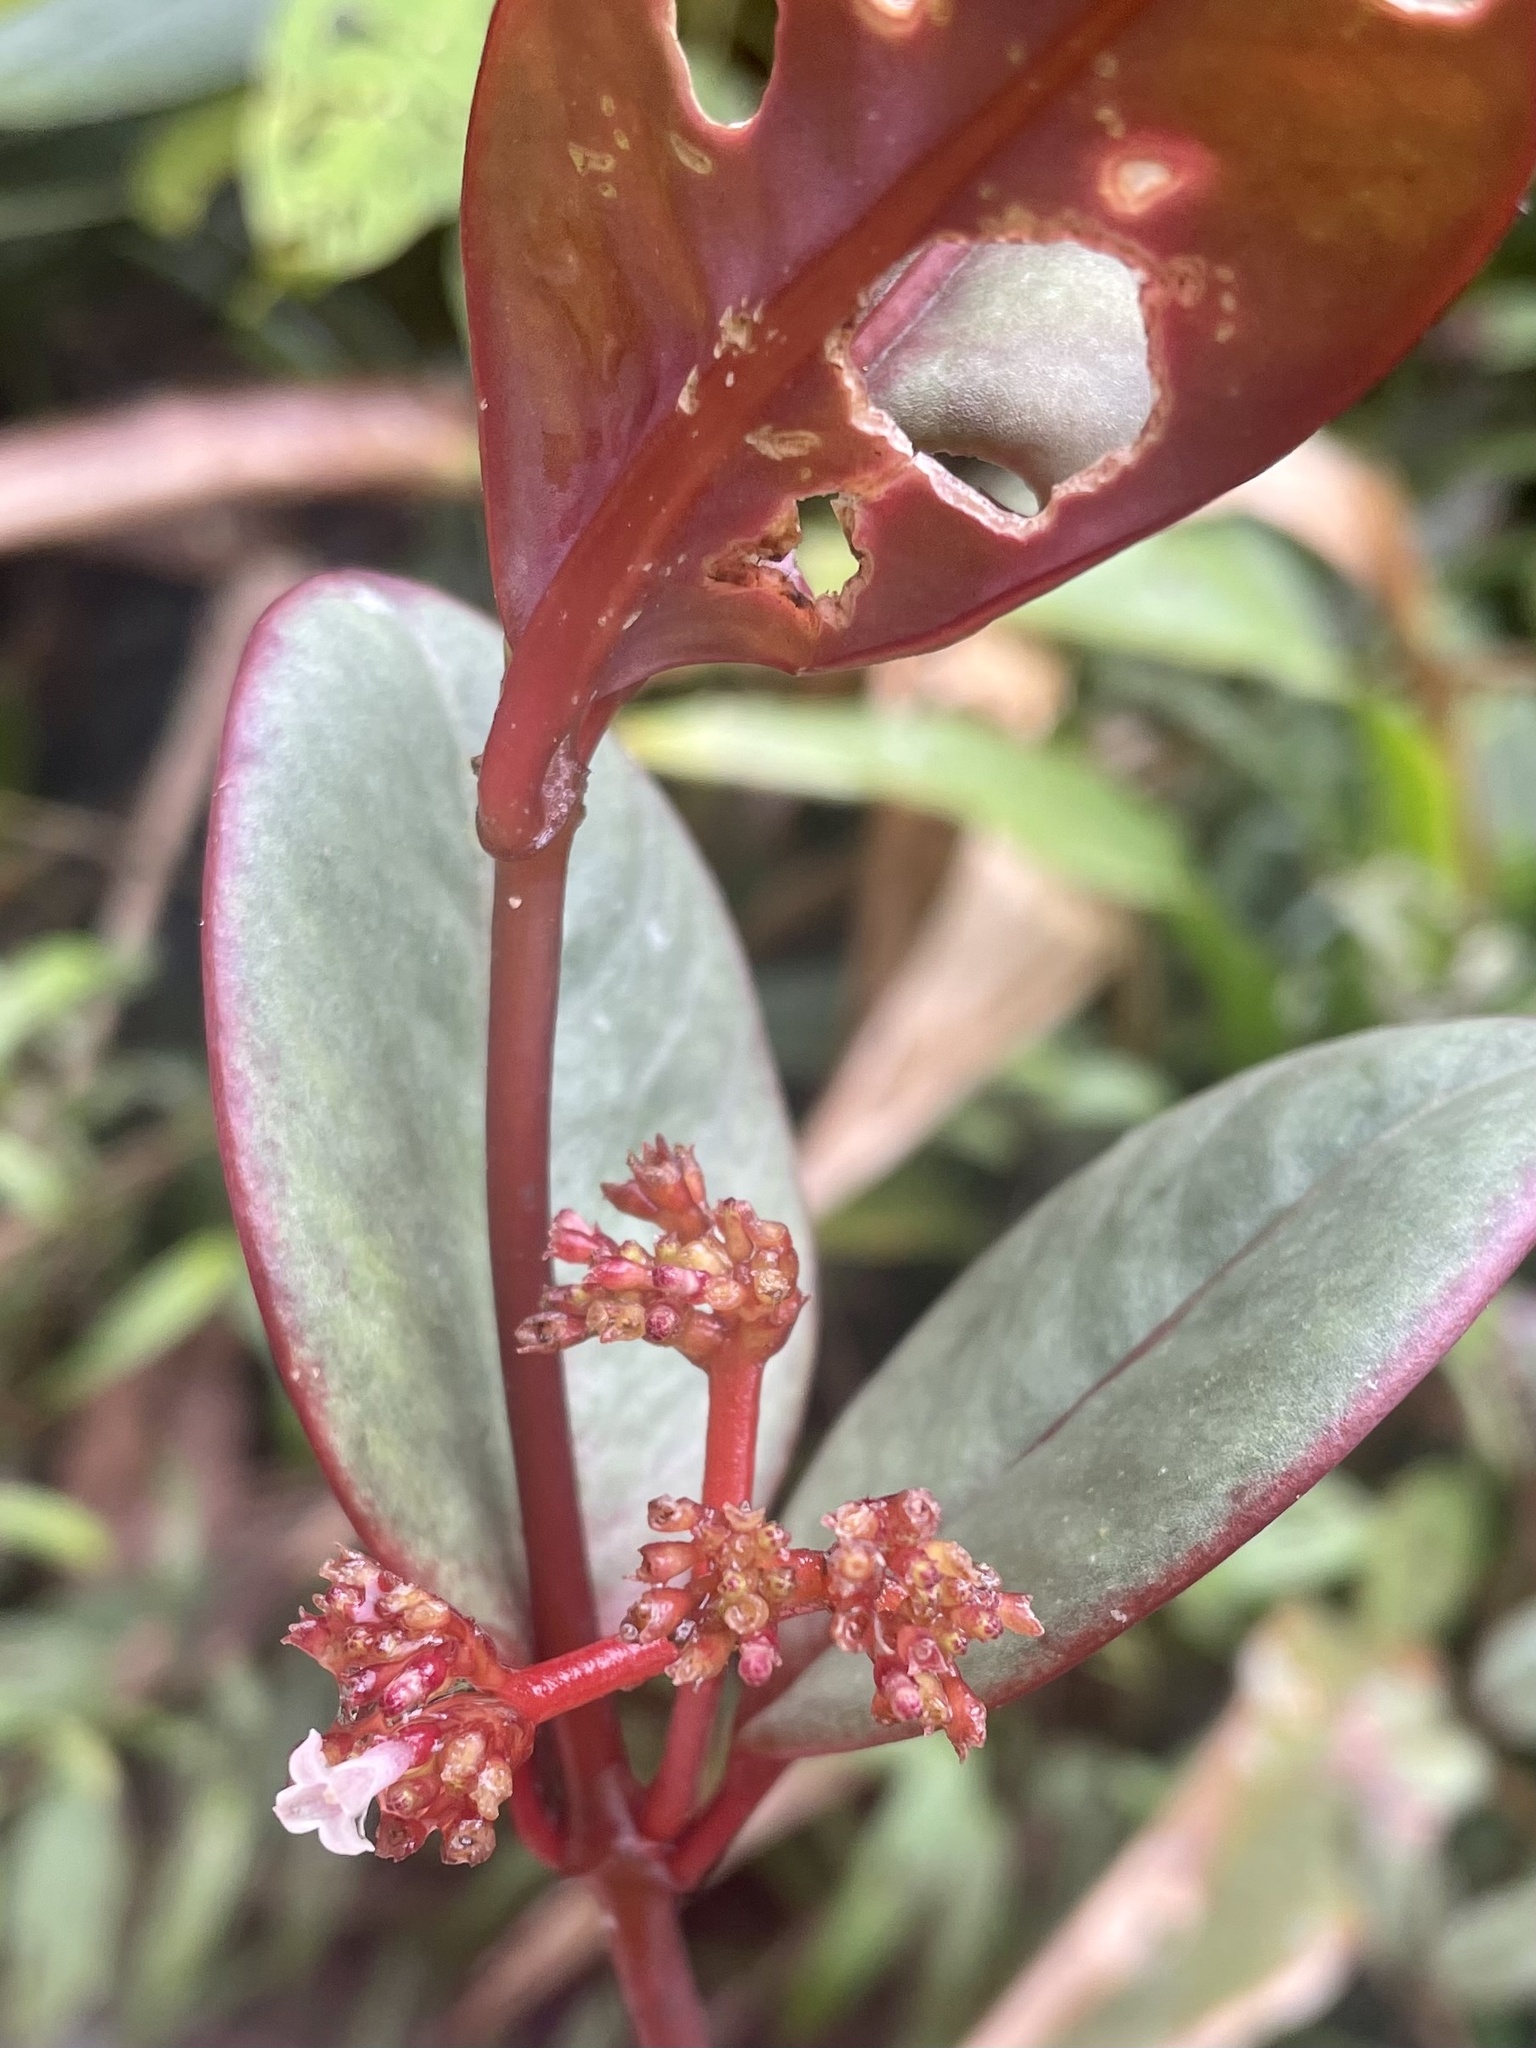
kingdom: Plantae
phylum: Tracheophyta
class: Magnoliopsida
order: Gentianales
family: Rubiaceae
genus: Notopleura
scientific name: Notopleura epiphytica
